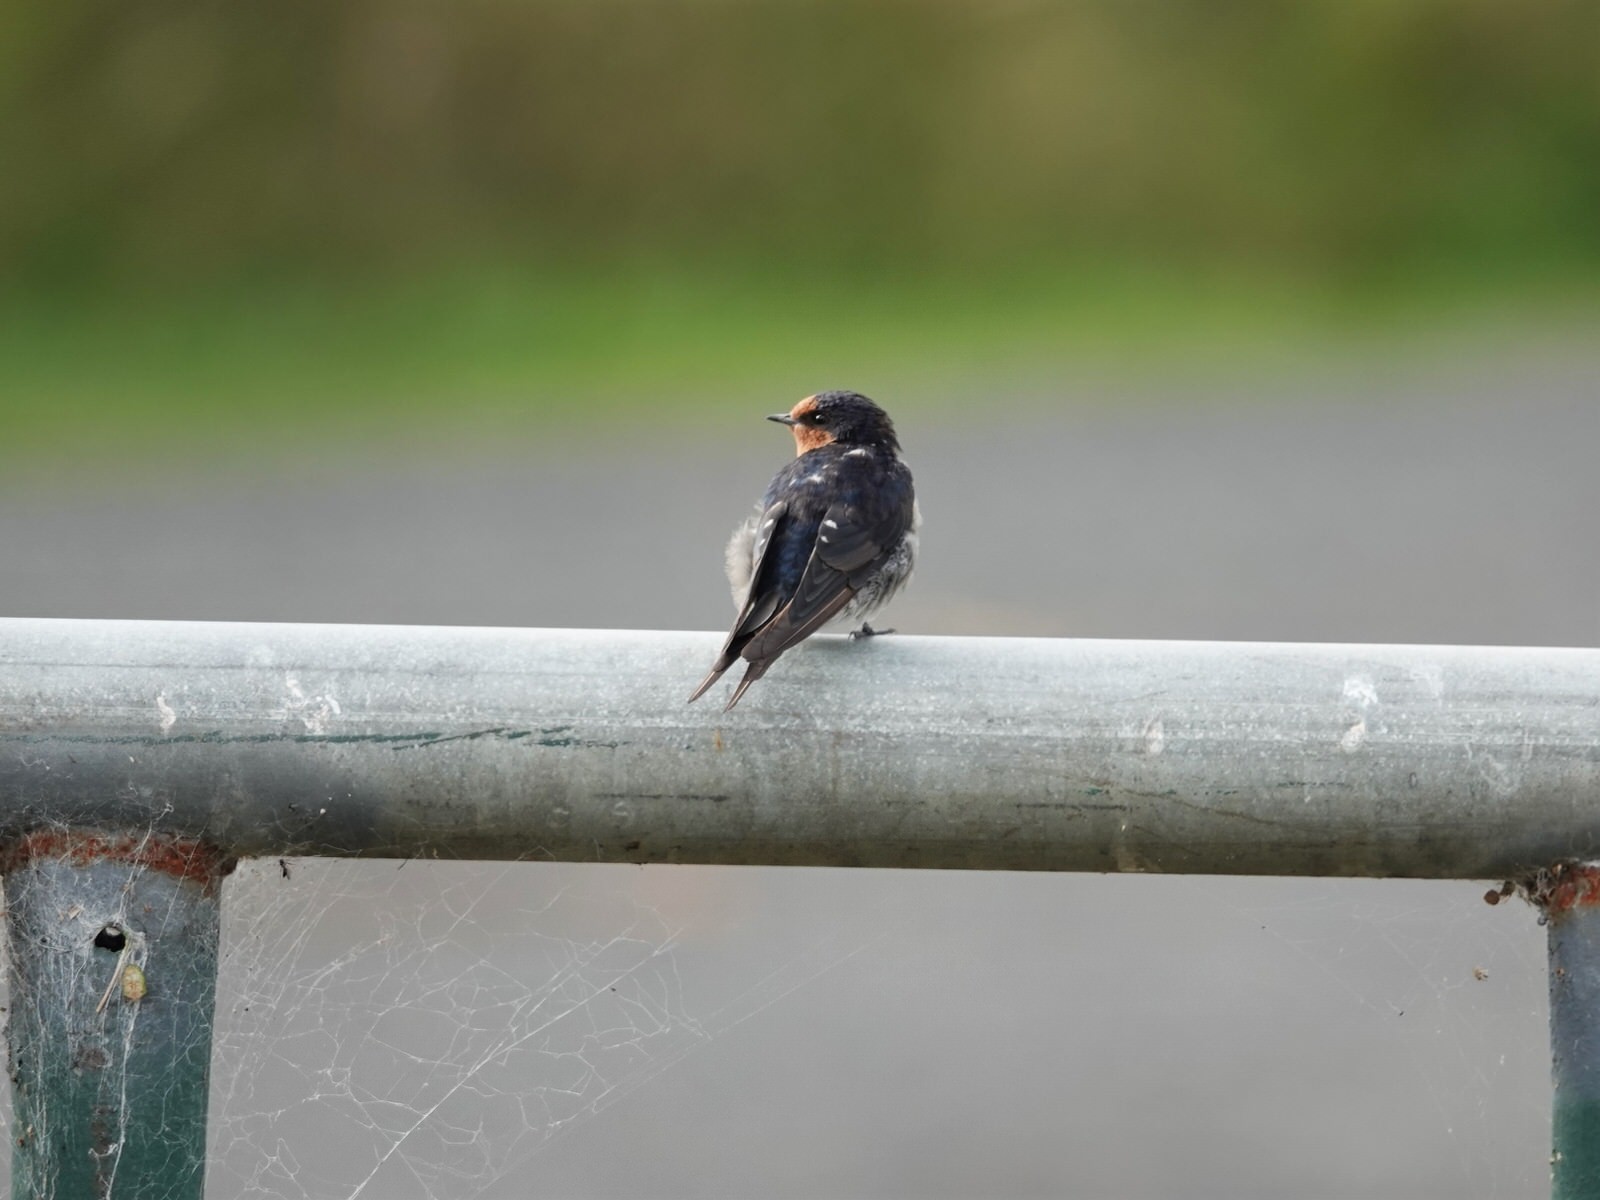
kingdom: Animalia
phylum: Chordata
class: Aves
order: Passeriformes
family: Hirundinidae
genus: Hirundo
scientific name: Hirundo neoxena
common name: Welcome swallow
